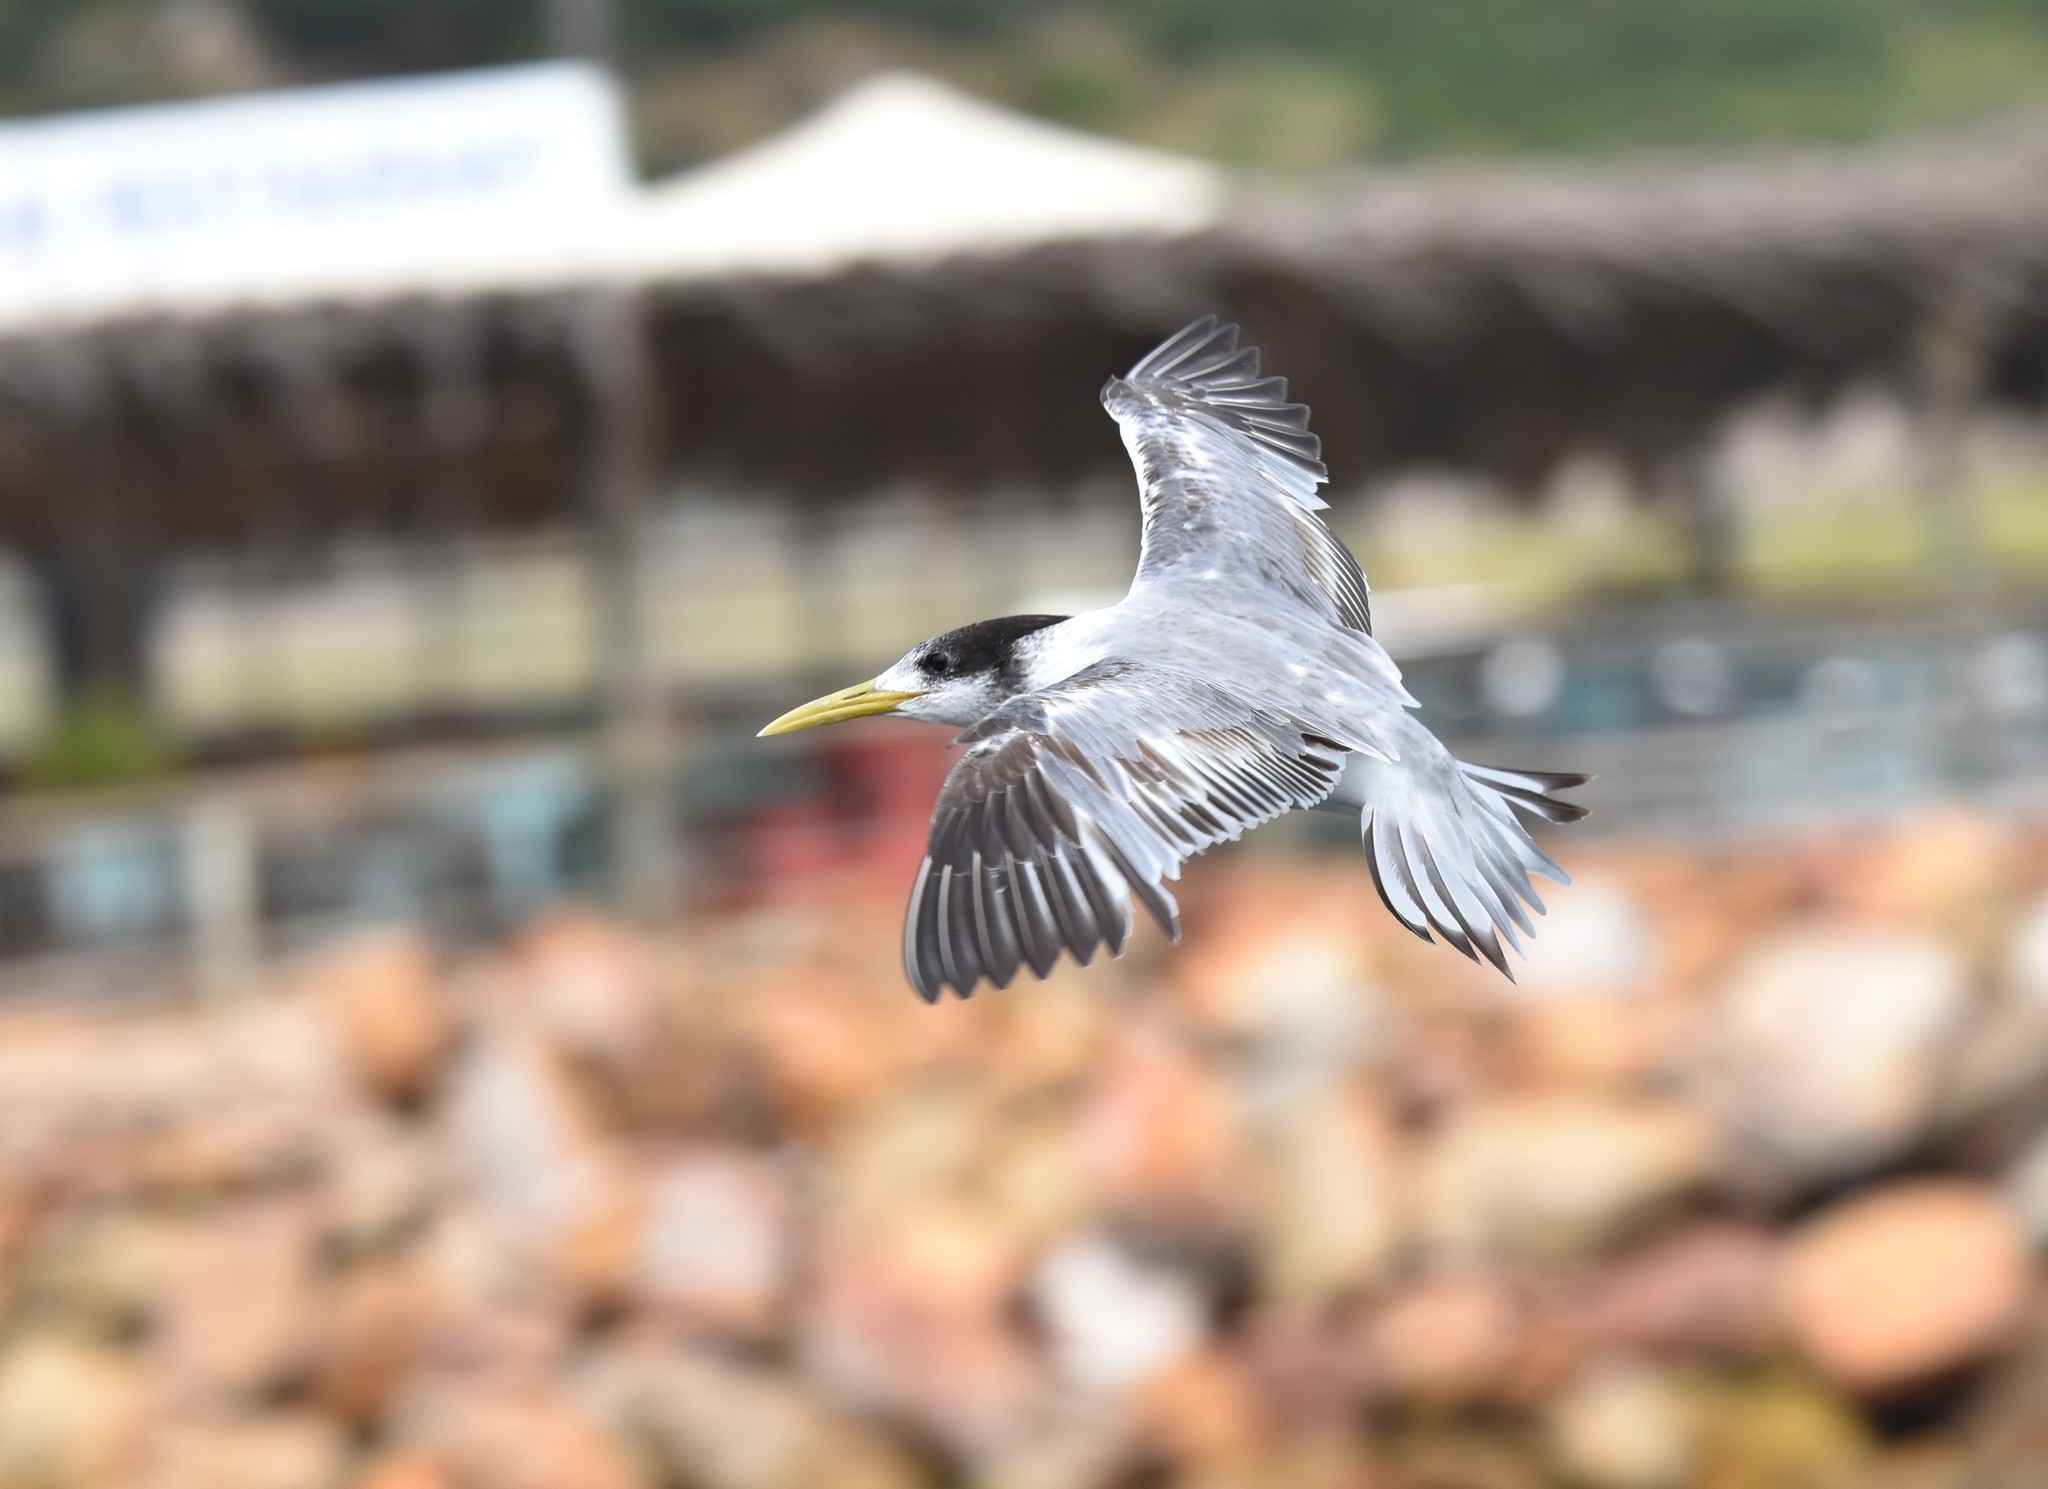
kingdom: Animalia
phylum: Chordata
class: Aves
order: Charadriiformes
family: Laridae
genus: Thalasseus
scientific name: Thalasseus bergii
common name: Greater crested tern
